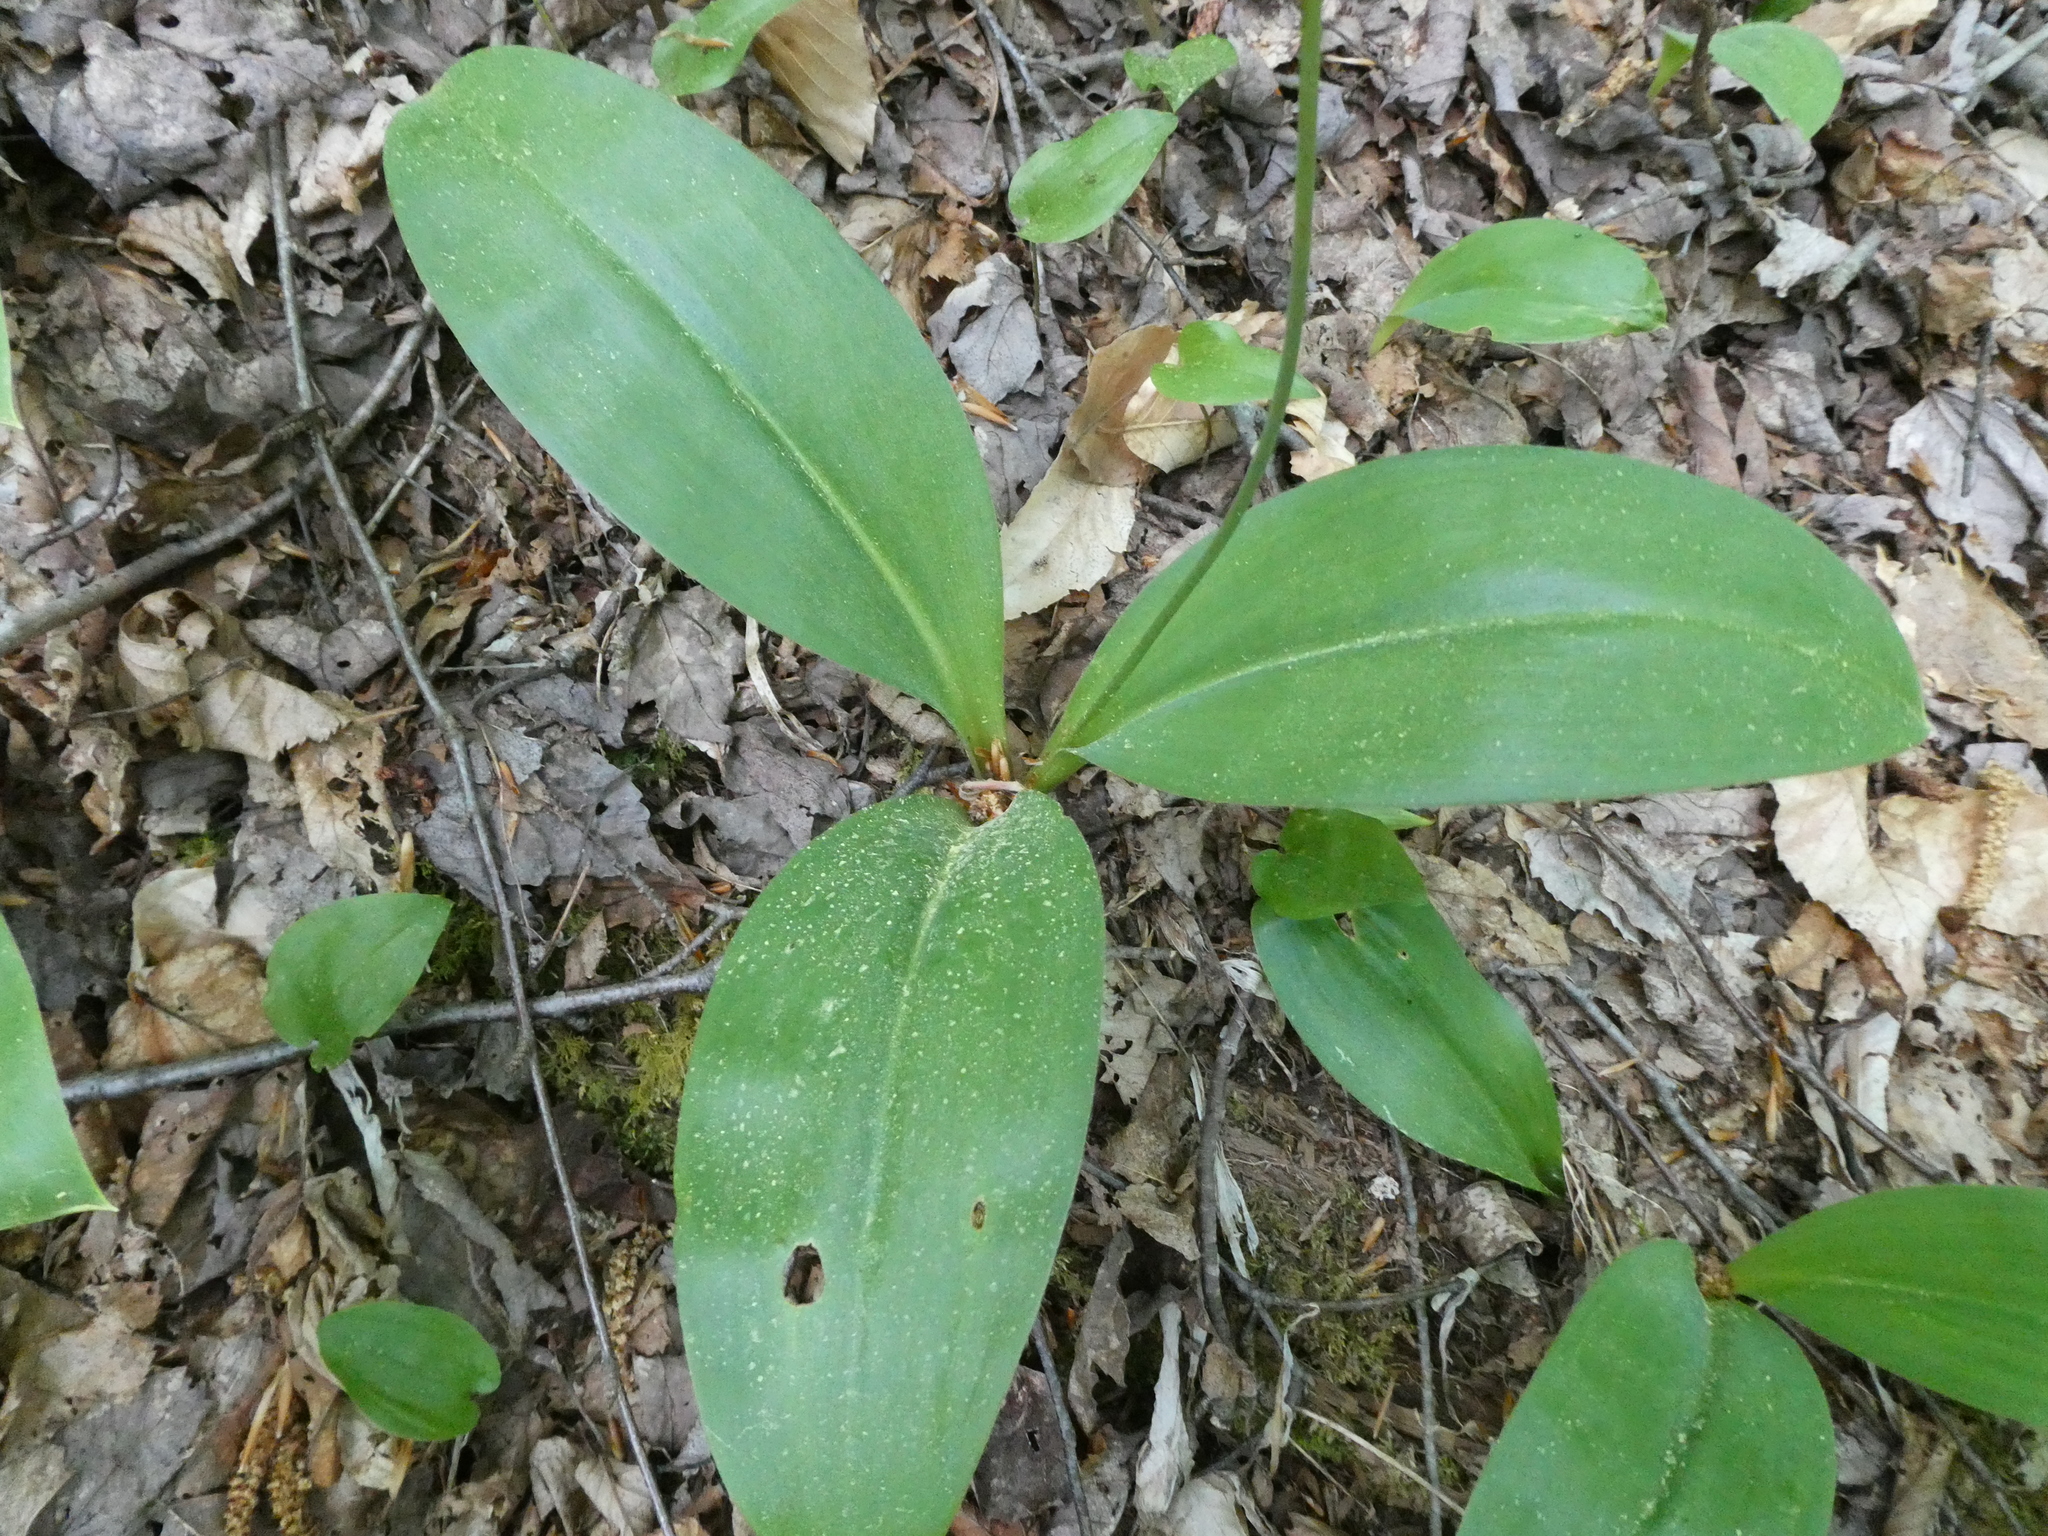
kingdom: Plantae
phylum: Tracheophyta
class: Liliopsida
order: Liliales
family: Liliaceae
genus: Clintonia
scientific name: Clintonia borealis
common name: Yellow clintonia
